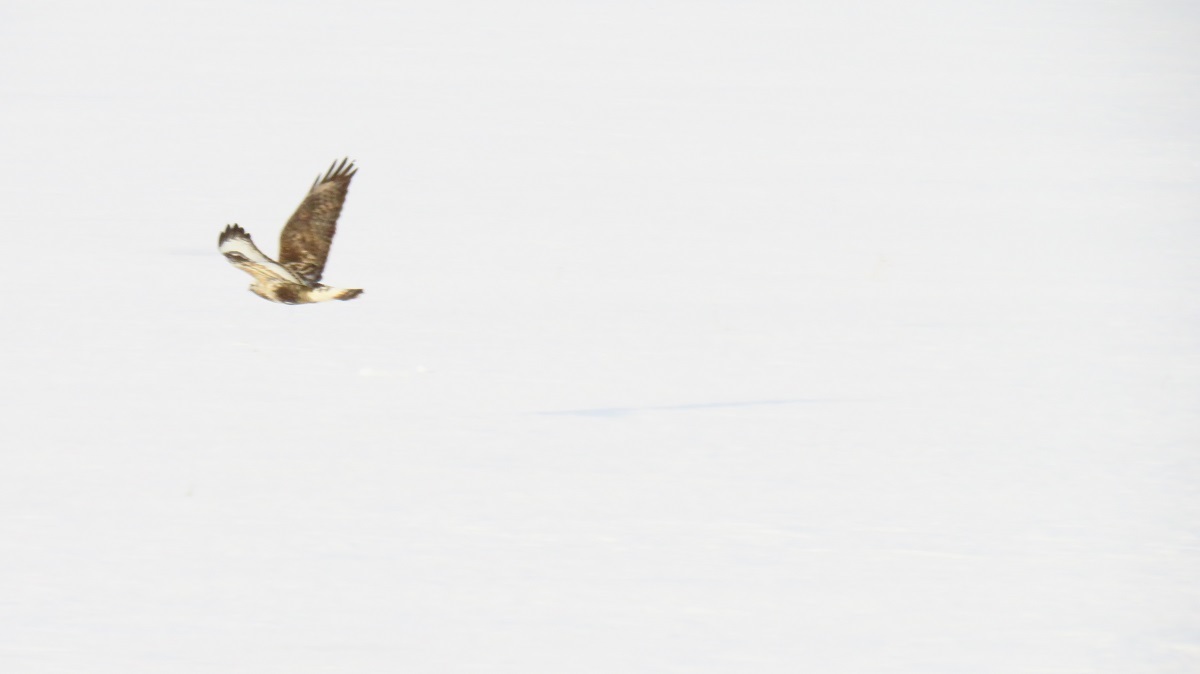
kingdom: Animalia
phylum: Chordata
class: Aves
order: Accipitriformes
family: Accipitridae
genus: Buteo
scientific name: Buteo lagopus
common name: Rough-legged buzzard
